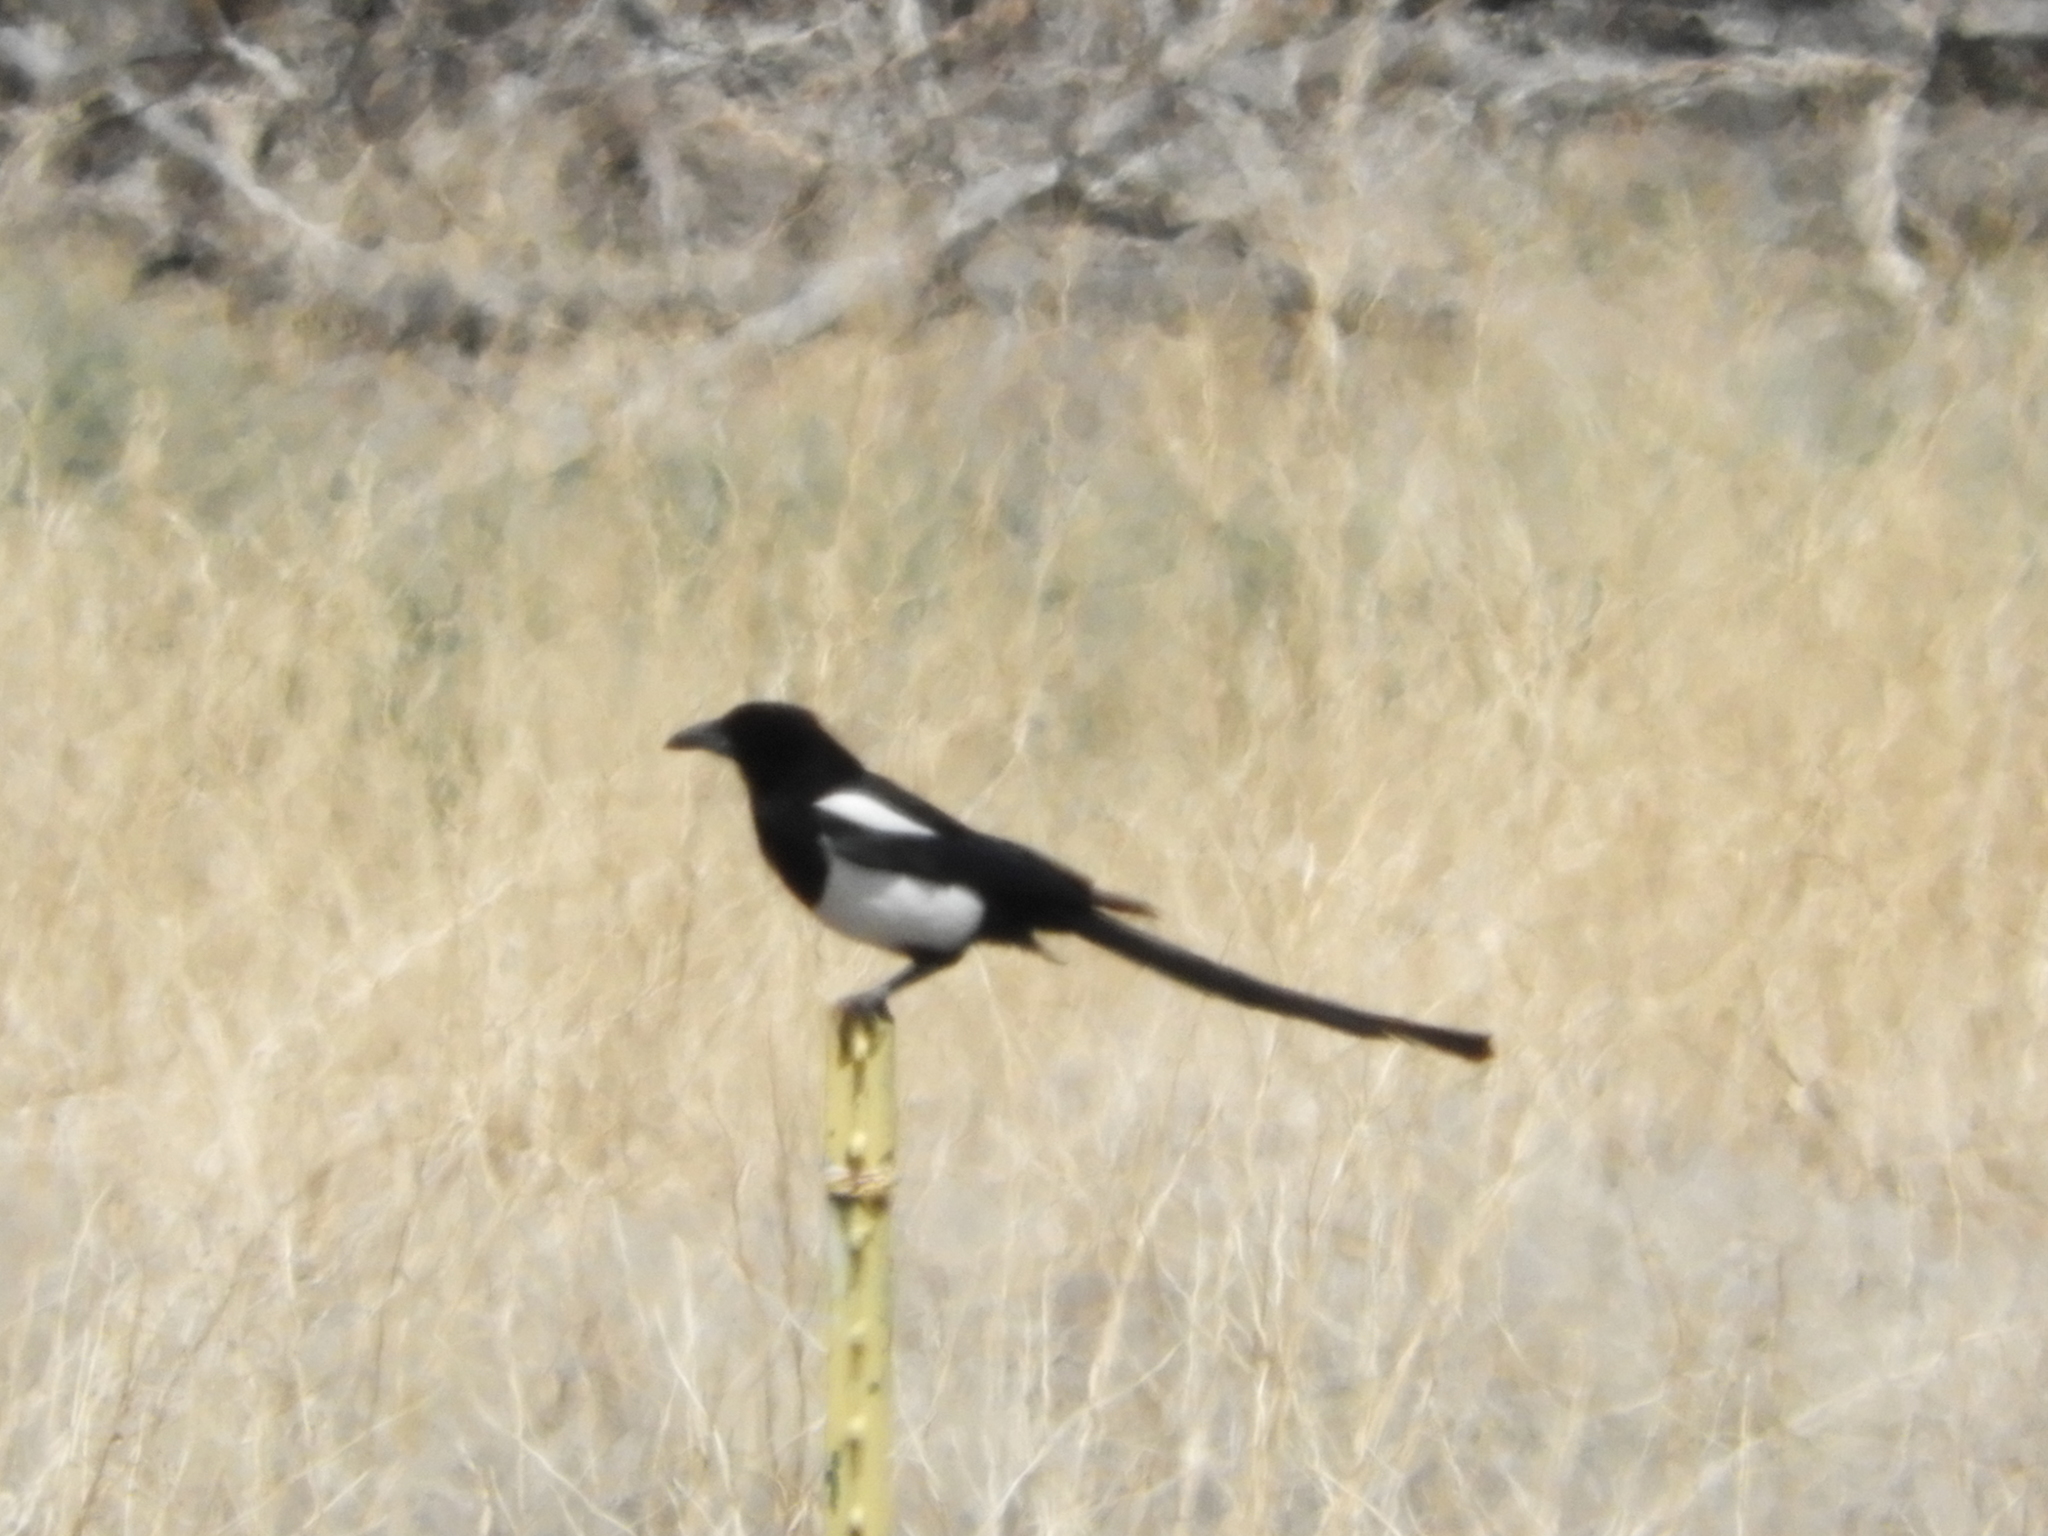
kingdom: Animalia
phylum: Chordata
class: Aves
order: Passeriformes
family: Corvidae
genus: Pica
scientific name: Pica hudsonia
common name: Black-billed magpie
